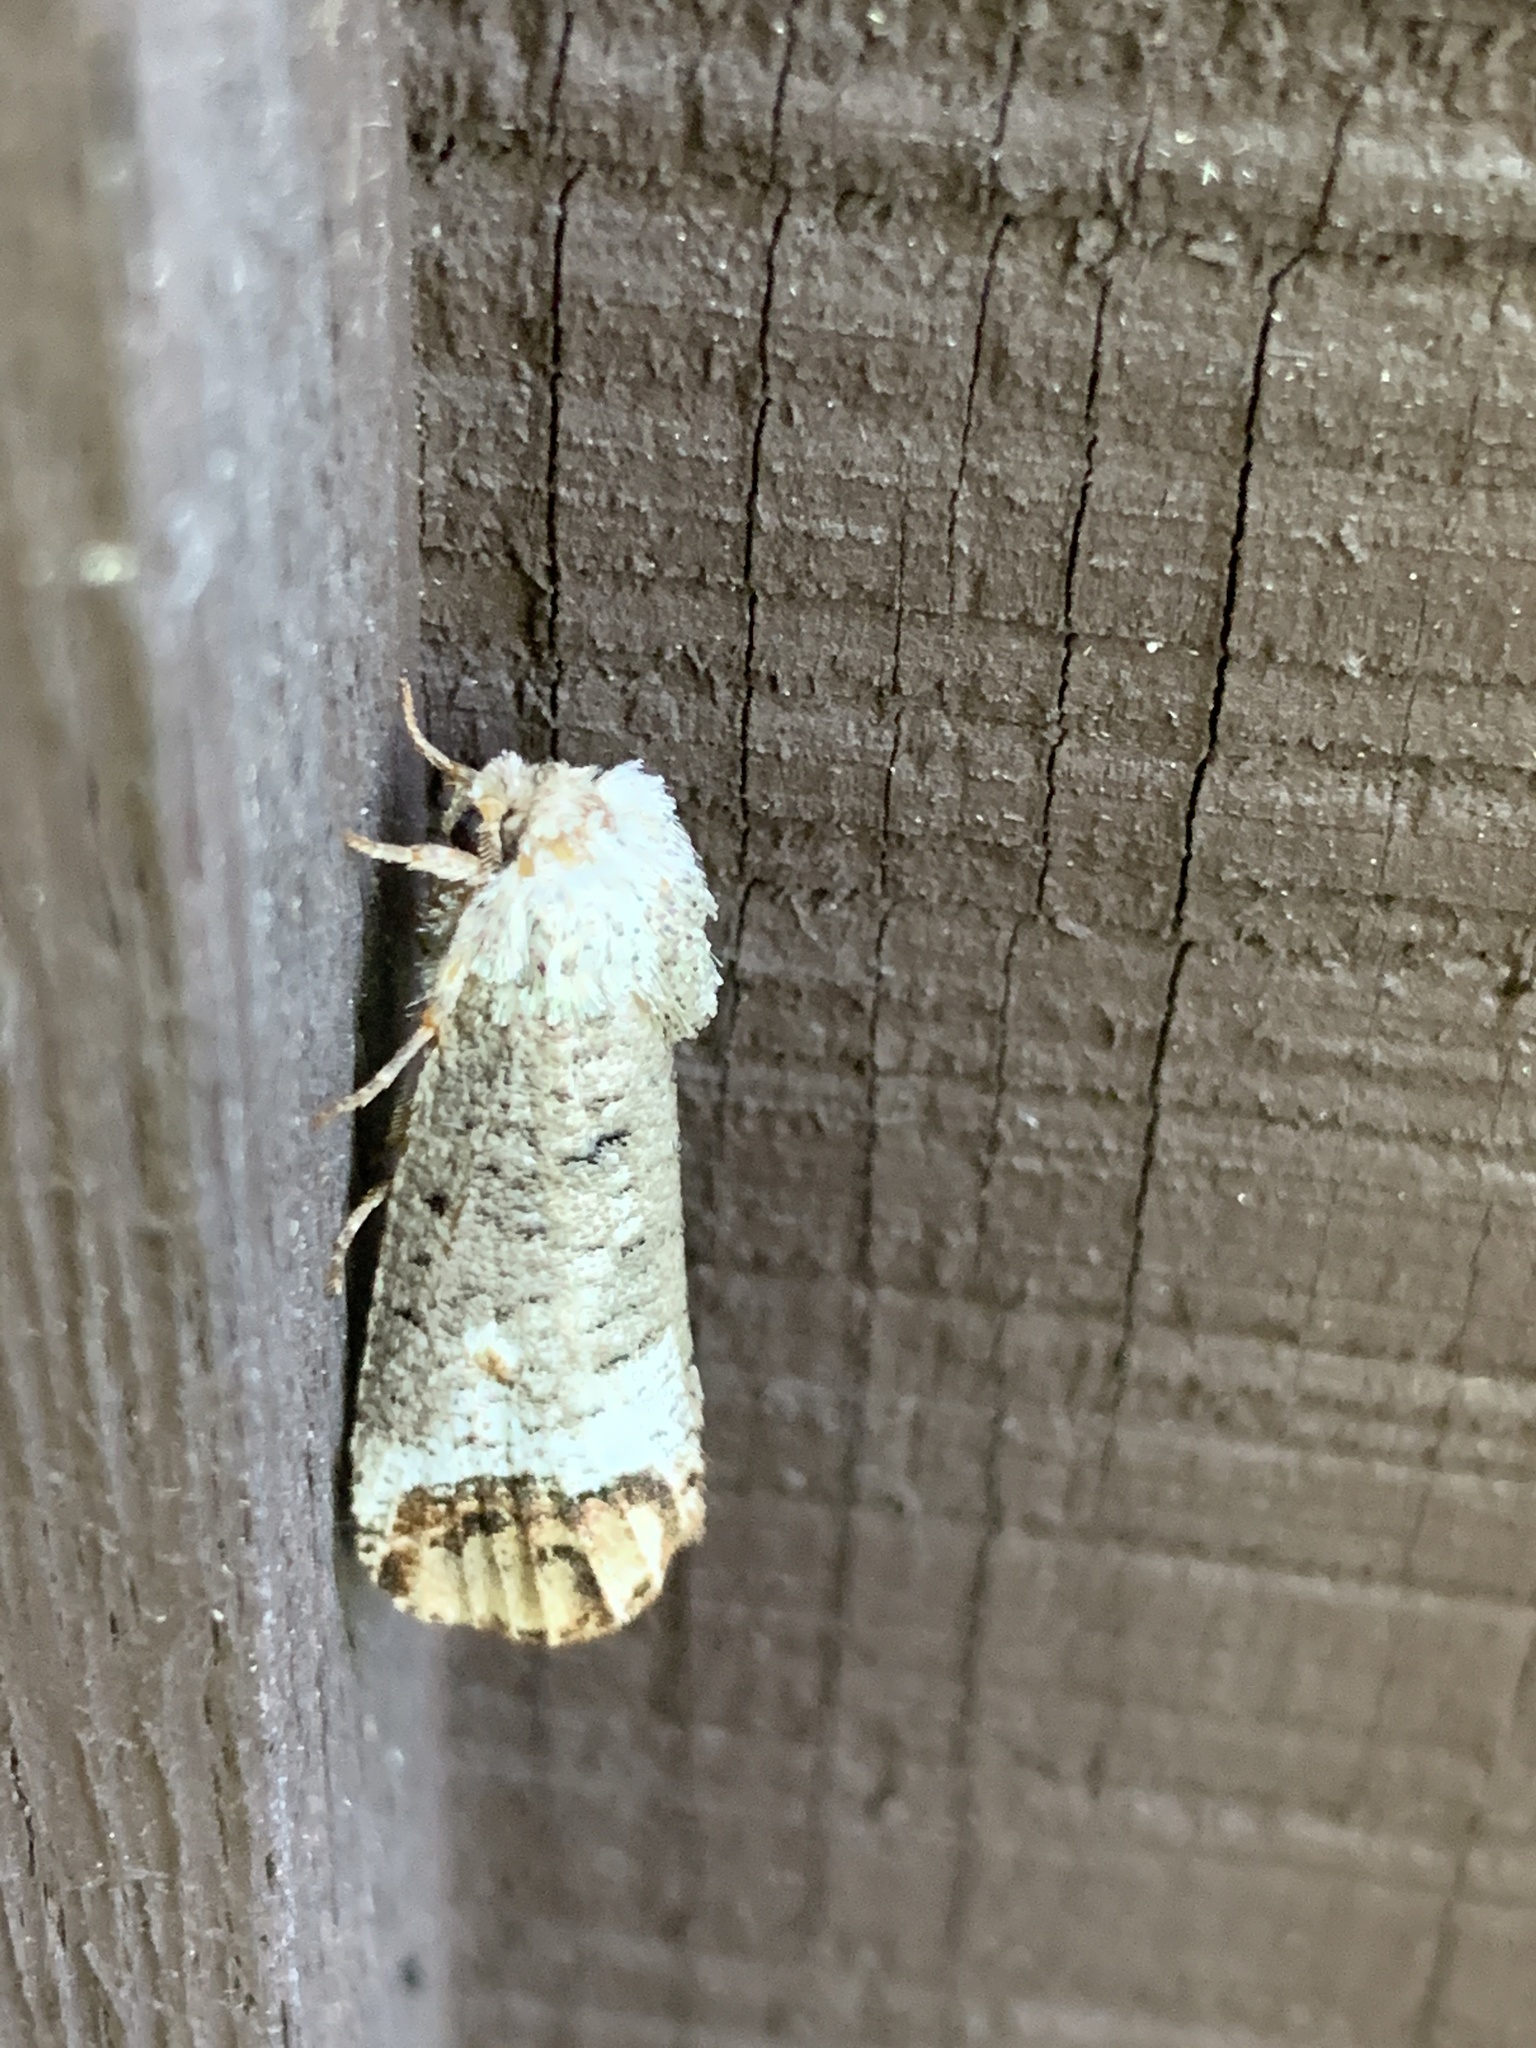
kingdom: Animalia
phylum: Arthropoda
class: Insecta
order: Lepidoptera
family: Cossidae
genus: Cossula
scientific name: Cossula magnifica
